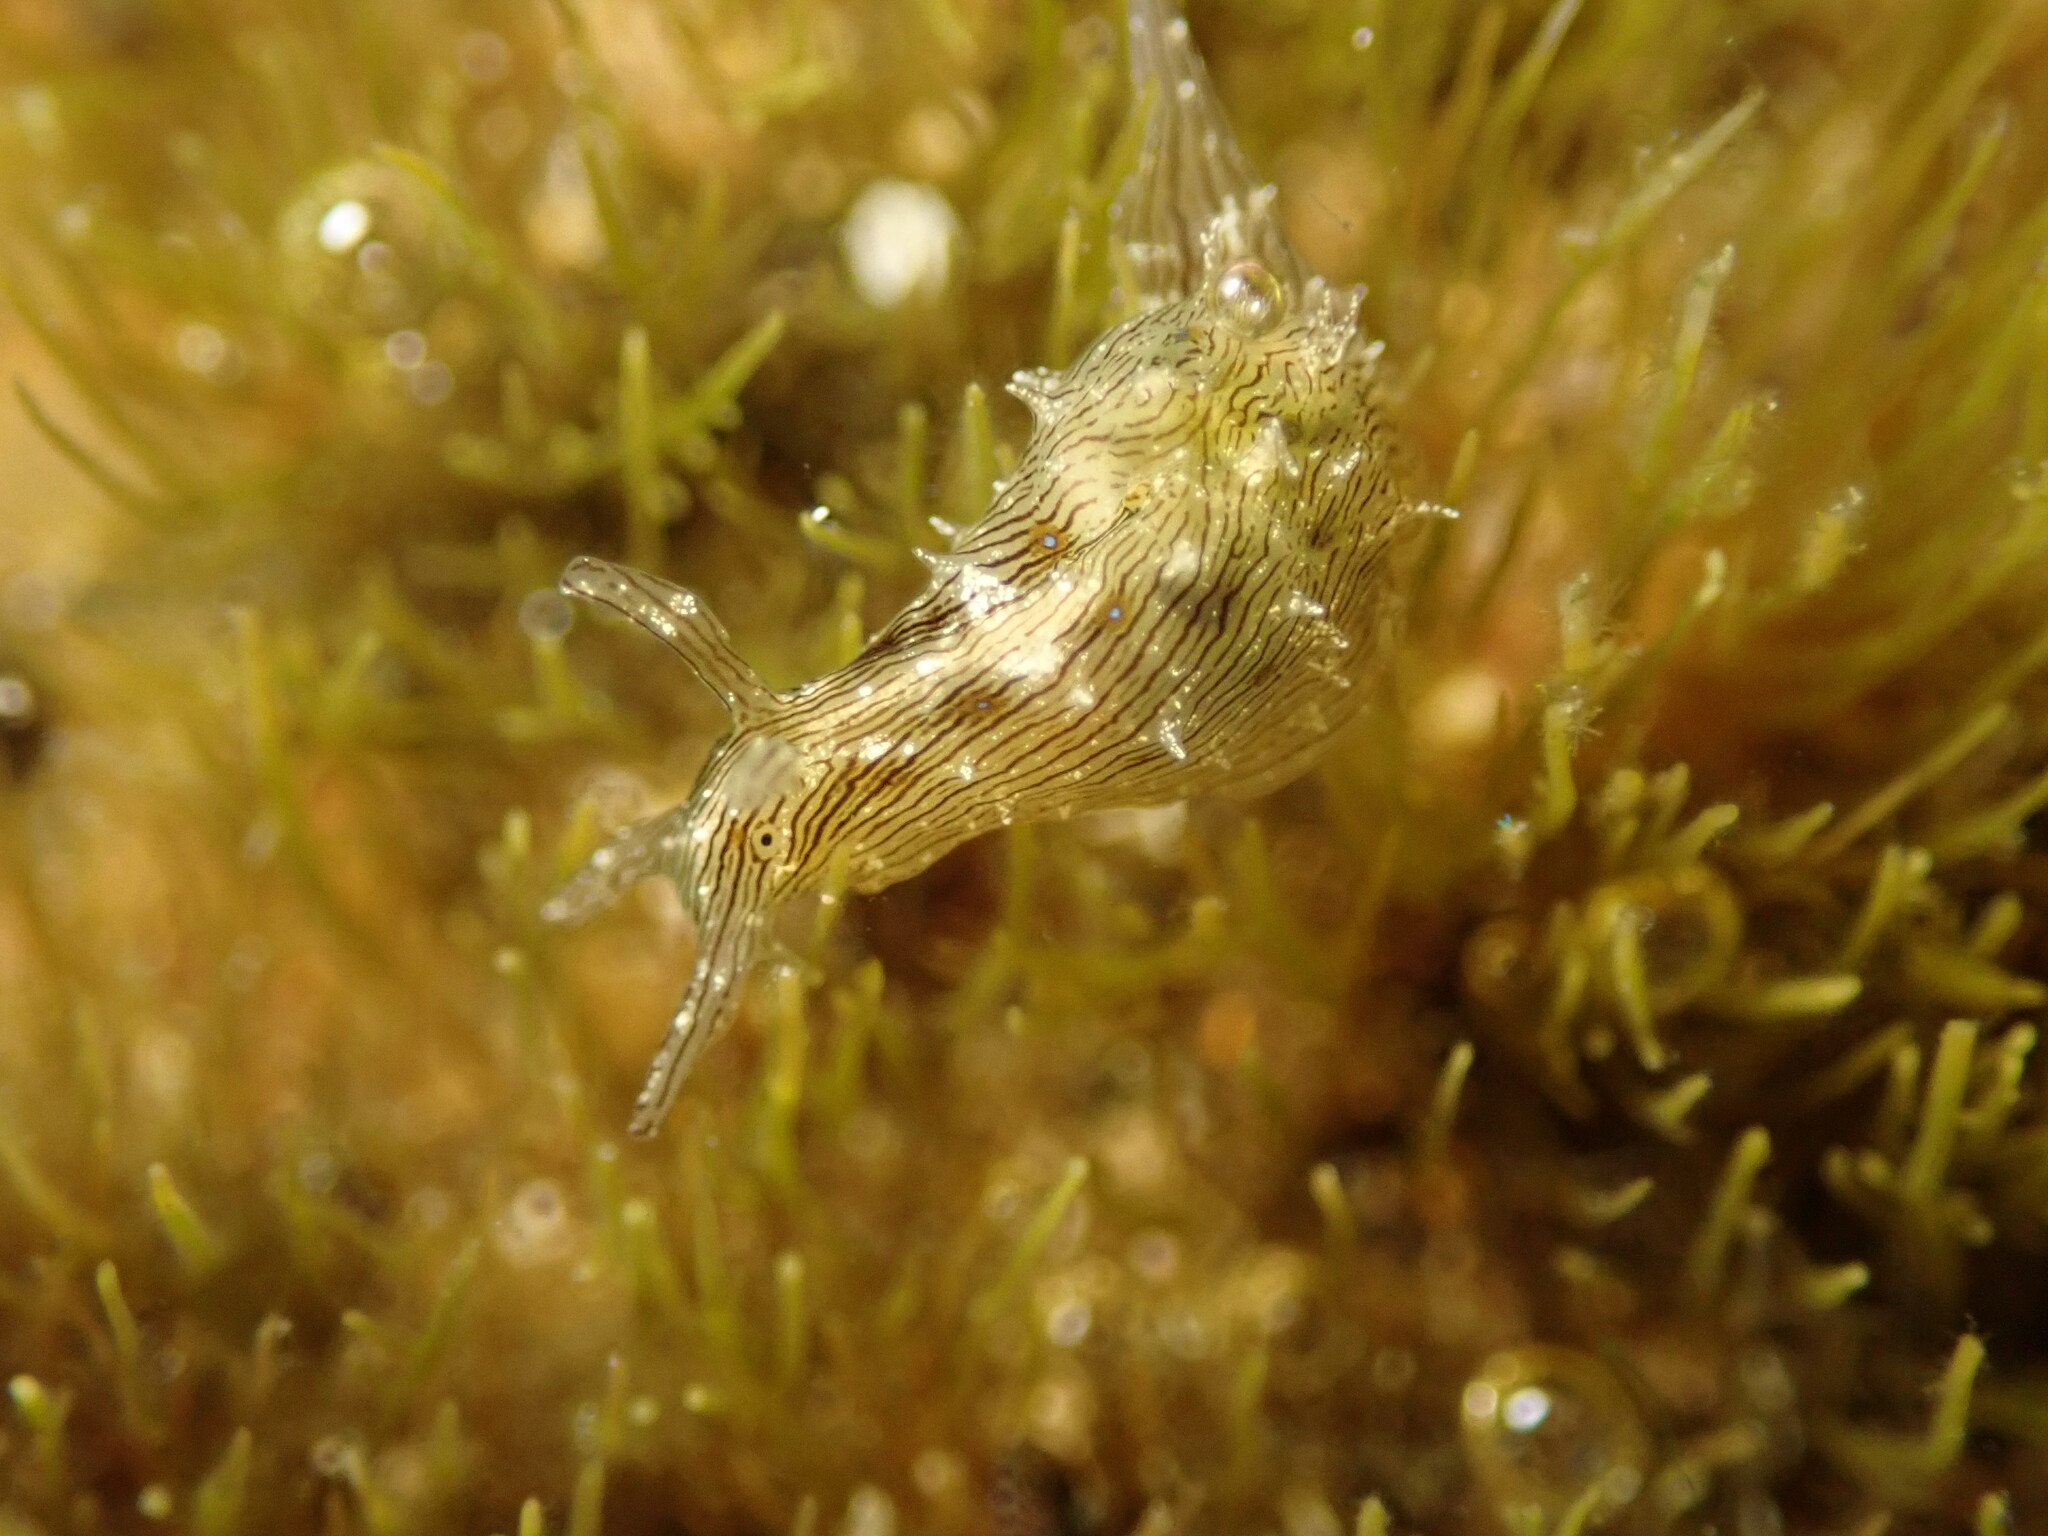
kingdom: Animalia
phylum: Mollusca
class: Gastropoda
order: Aplysiida
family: Aplysiidae
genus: Stylocheilus
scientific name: Stylocheilus striatus
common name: Striated seahare
